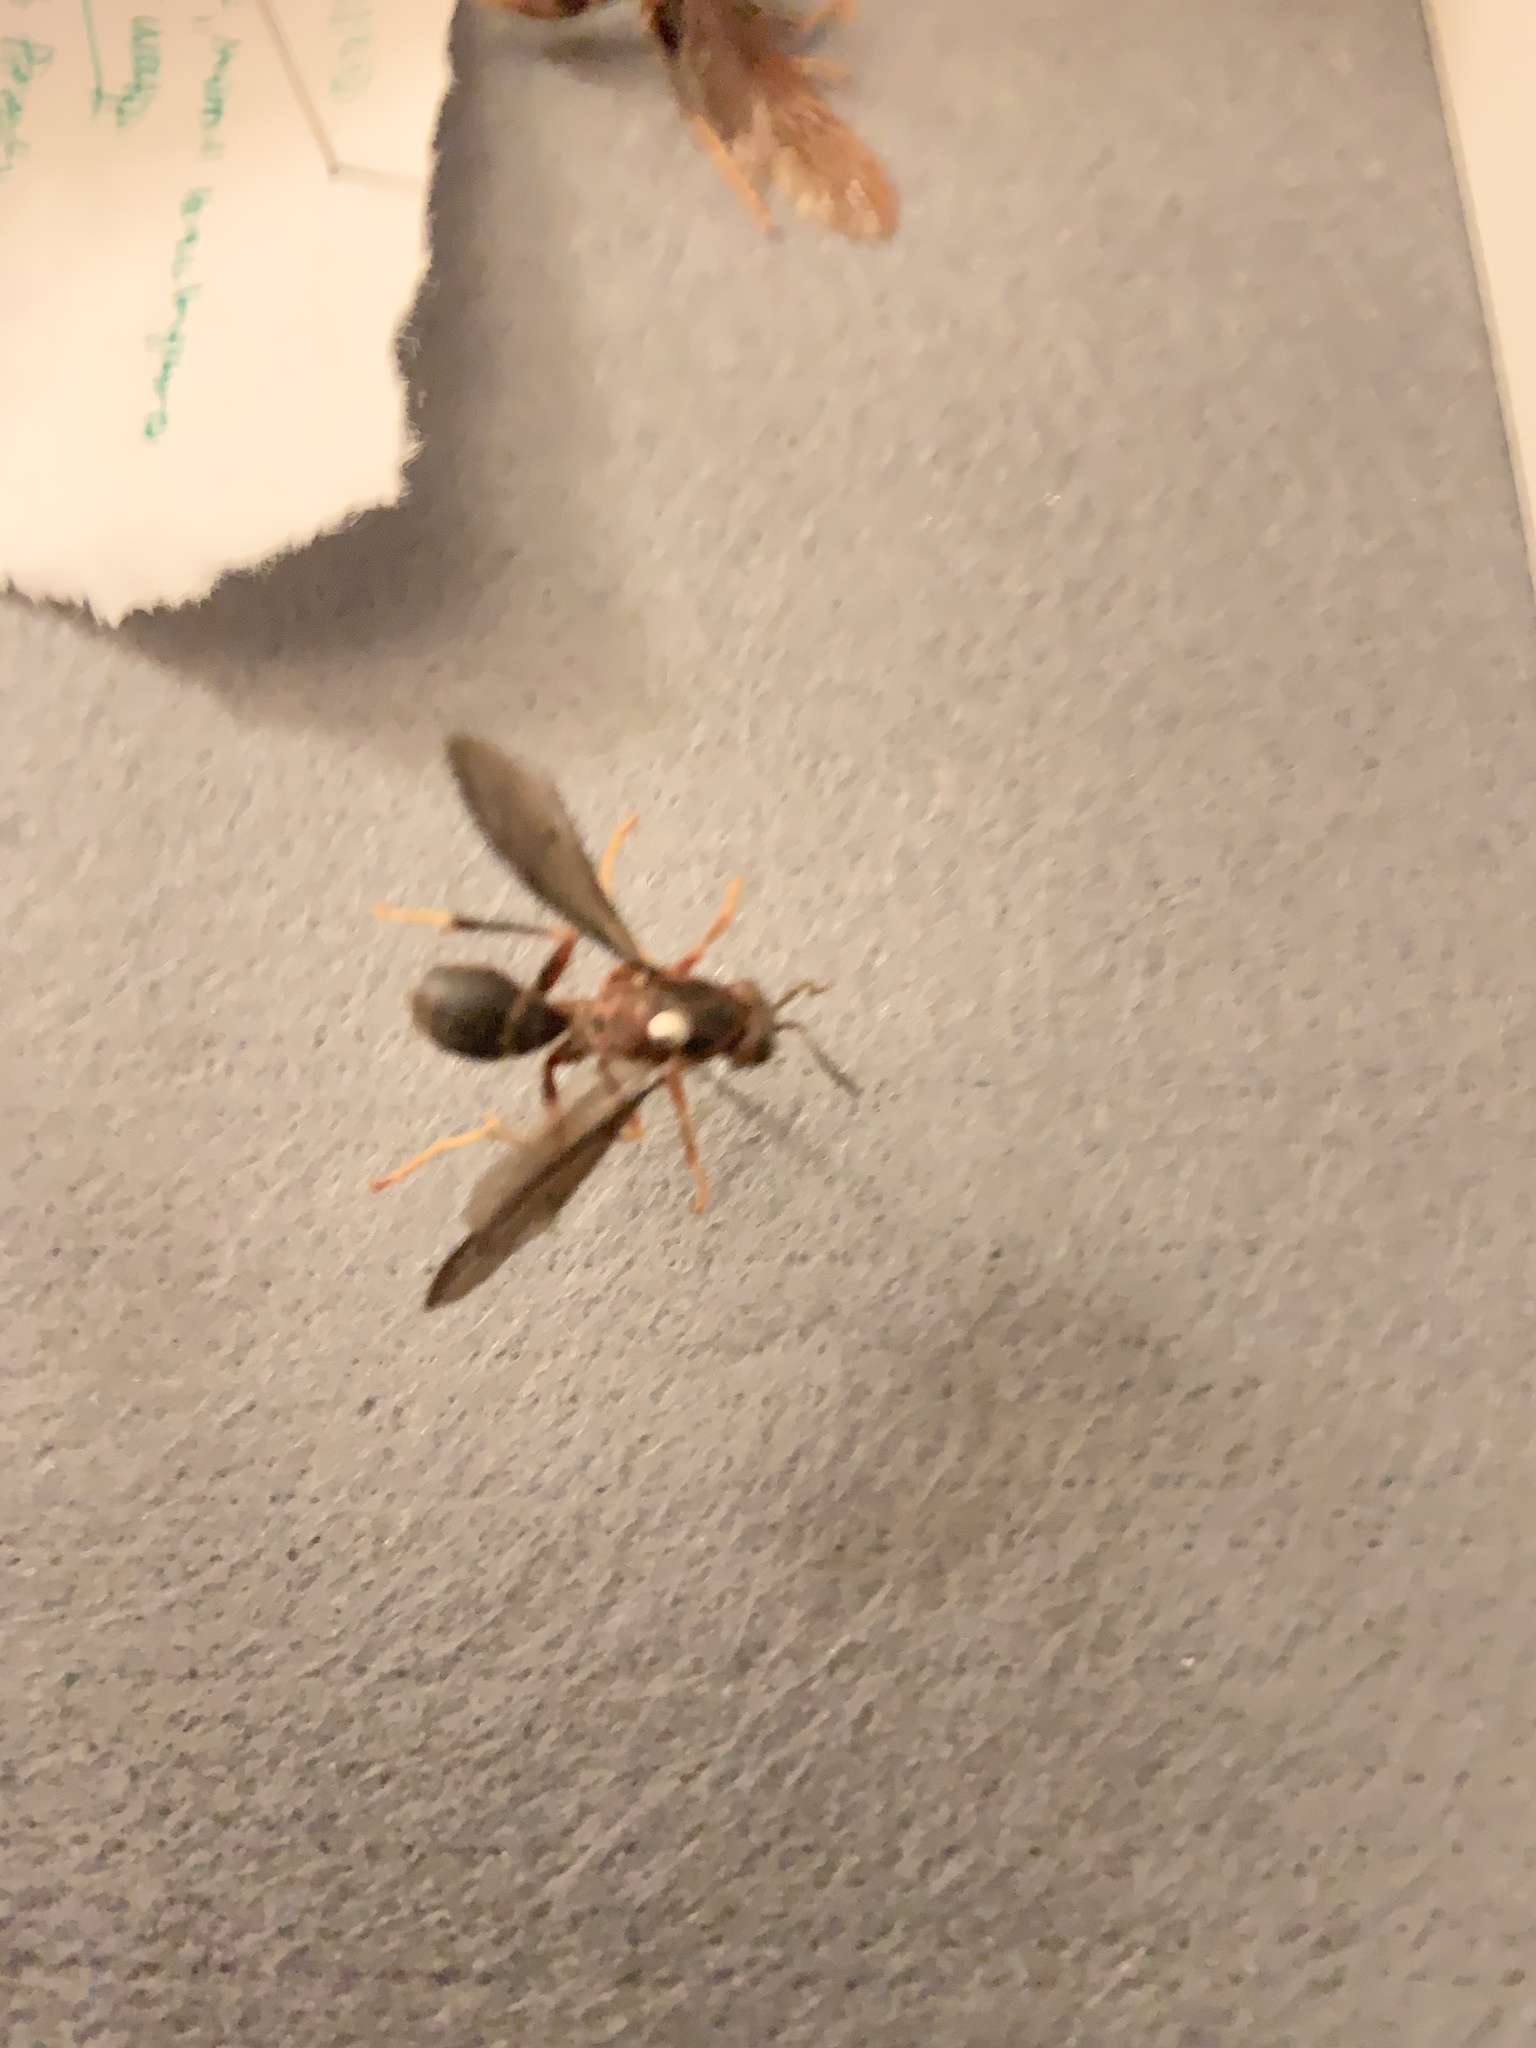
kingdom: Animalia
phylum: Arthropoda
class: Insecta
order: Hymenoptera
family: Eumenidae
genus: Polistes
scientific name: Polistes fuscatus
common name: Dark paper wasp
